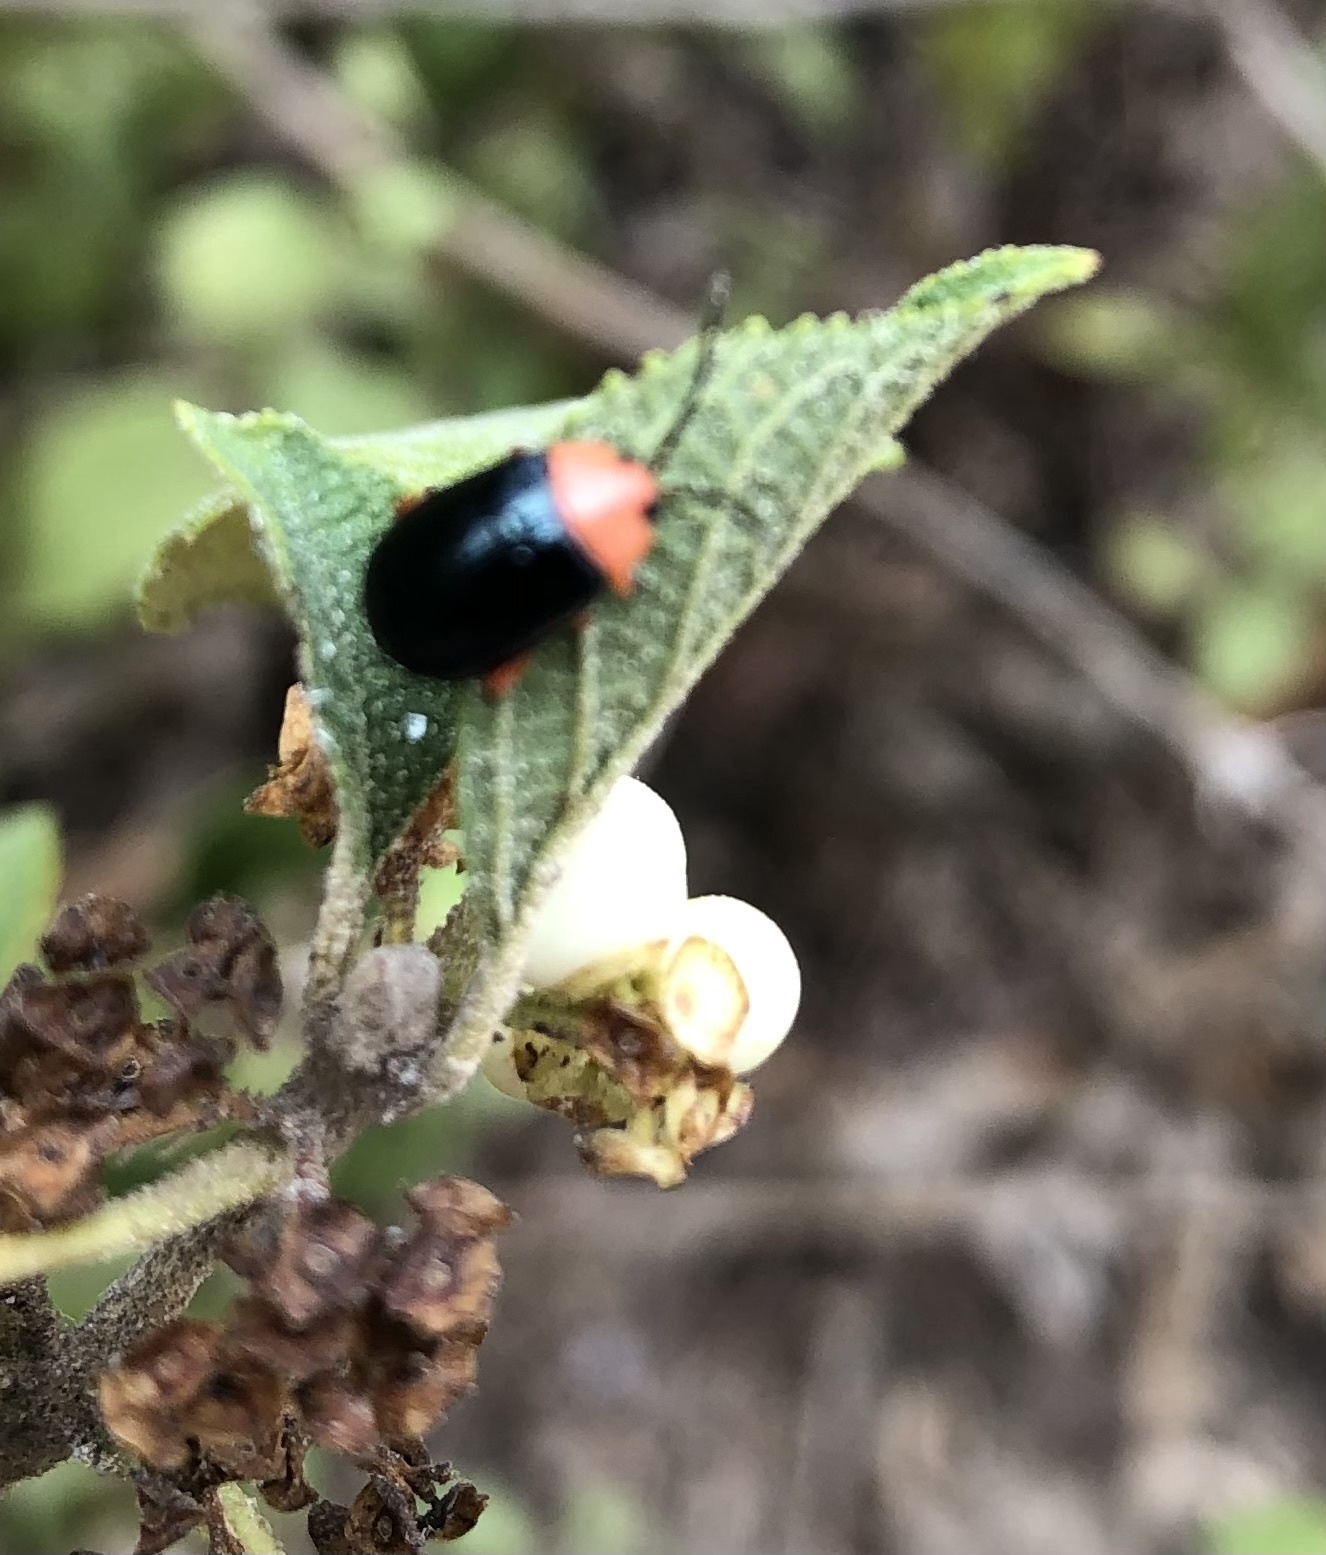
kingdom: Animalia
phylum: Arthropoda
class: Insecta
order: Coleoptera
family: Chrysomelidae
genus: Asphaera
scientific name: Asphaera lustrans
